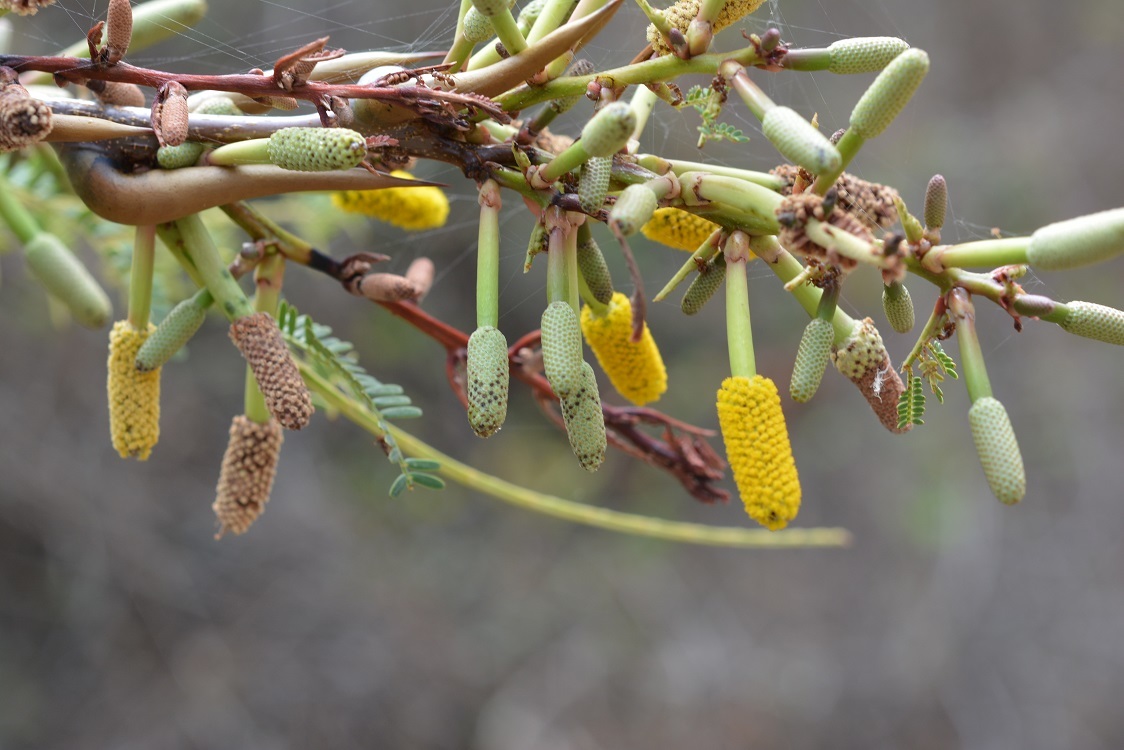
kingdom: Plantae
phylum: Tracheophyta
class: Magnoliopsida
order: Fabales
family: Fabaceae
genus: Vachellia
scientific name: Vachellia cornigera
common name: Bullhorn wattle
